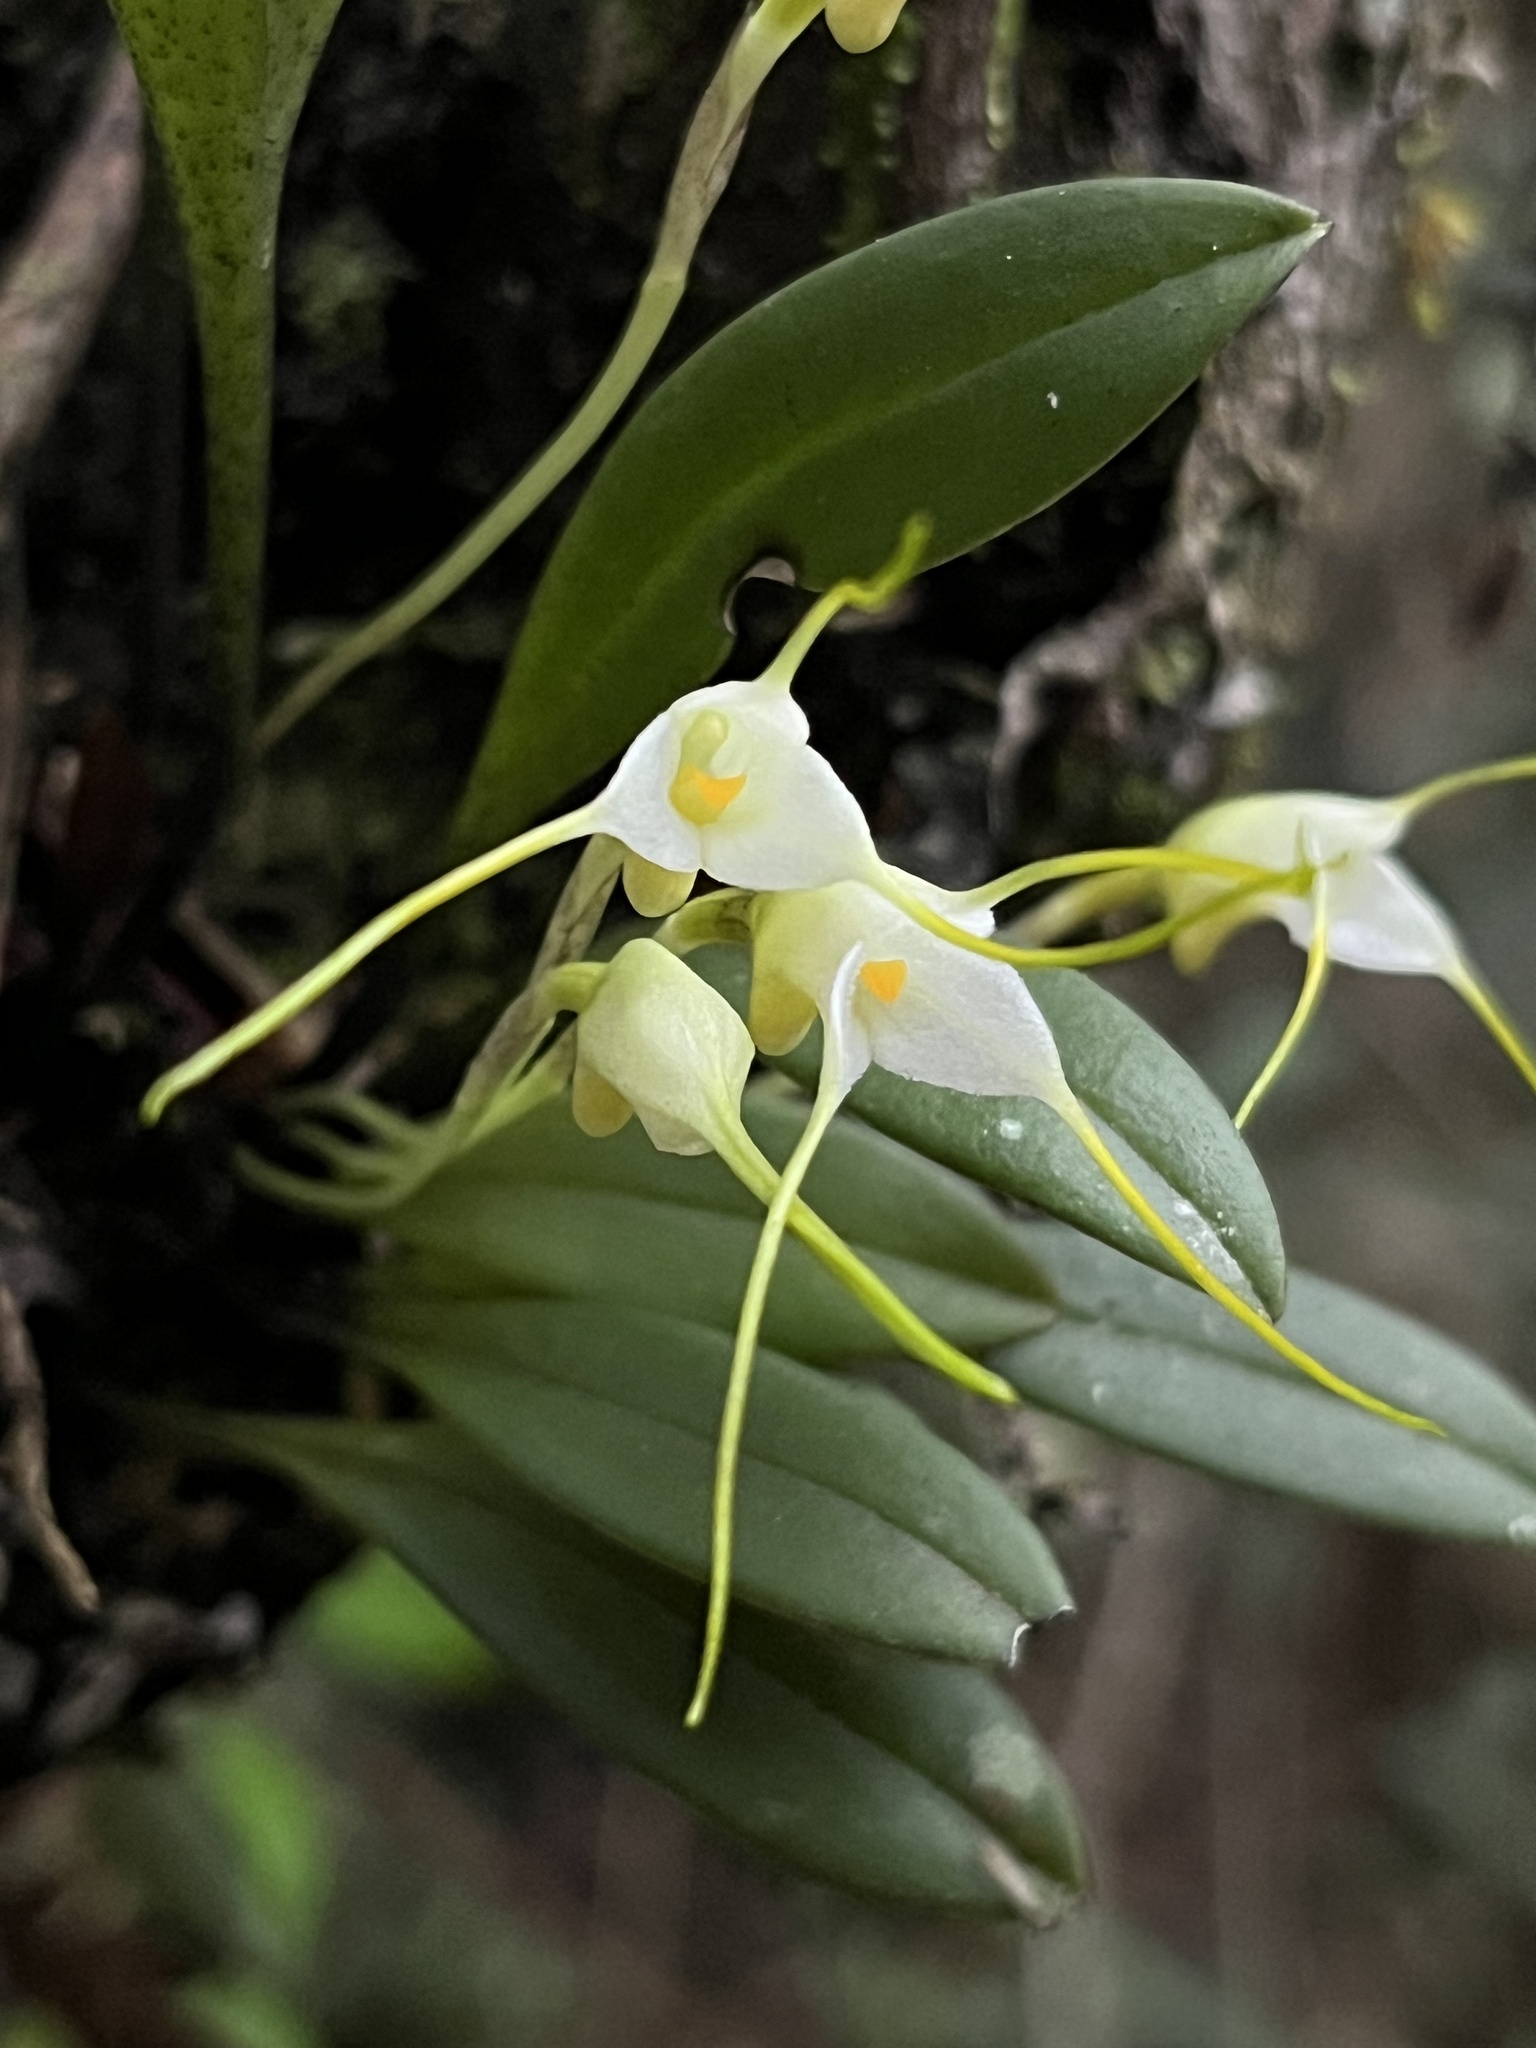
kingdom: Plantae
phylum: Tracheophyta
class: Liliopsida
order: Asparagales
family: Orchidaceae
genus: Masdevallia
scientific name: Masdevallia strumifera
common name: Goiter carrying masdevallia
